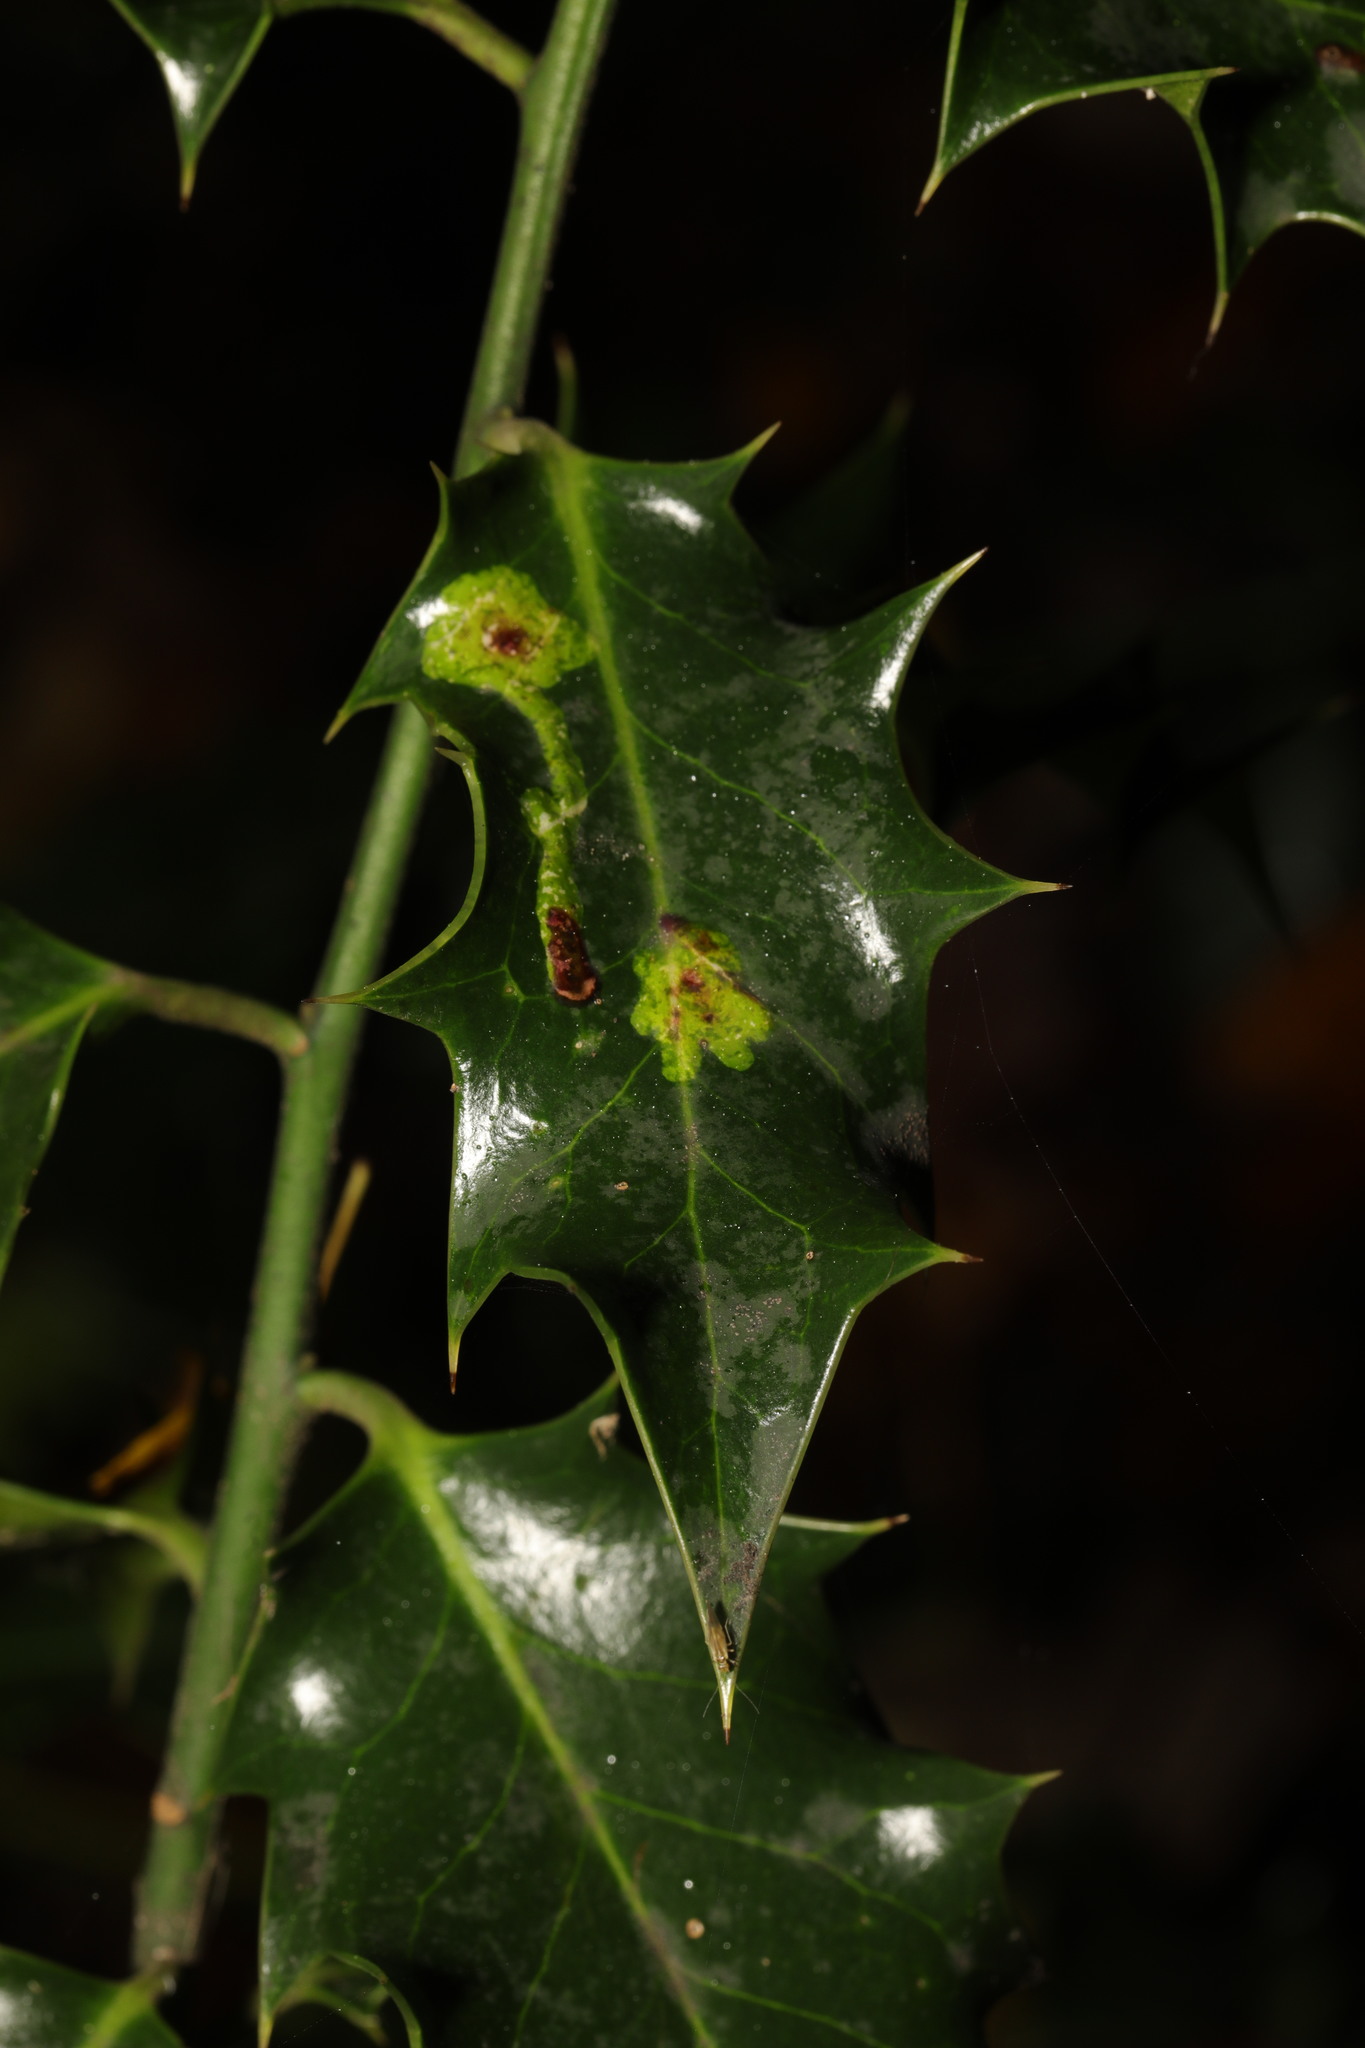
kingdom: Animalia
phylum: Arthropoda
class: Insecta
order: Diptera
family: Agromyzidae
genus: Phytomyza
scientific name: Phytomyza ilicis
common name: Holly leafminer
